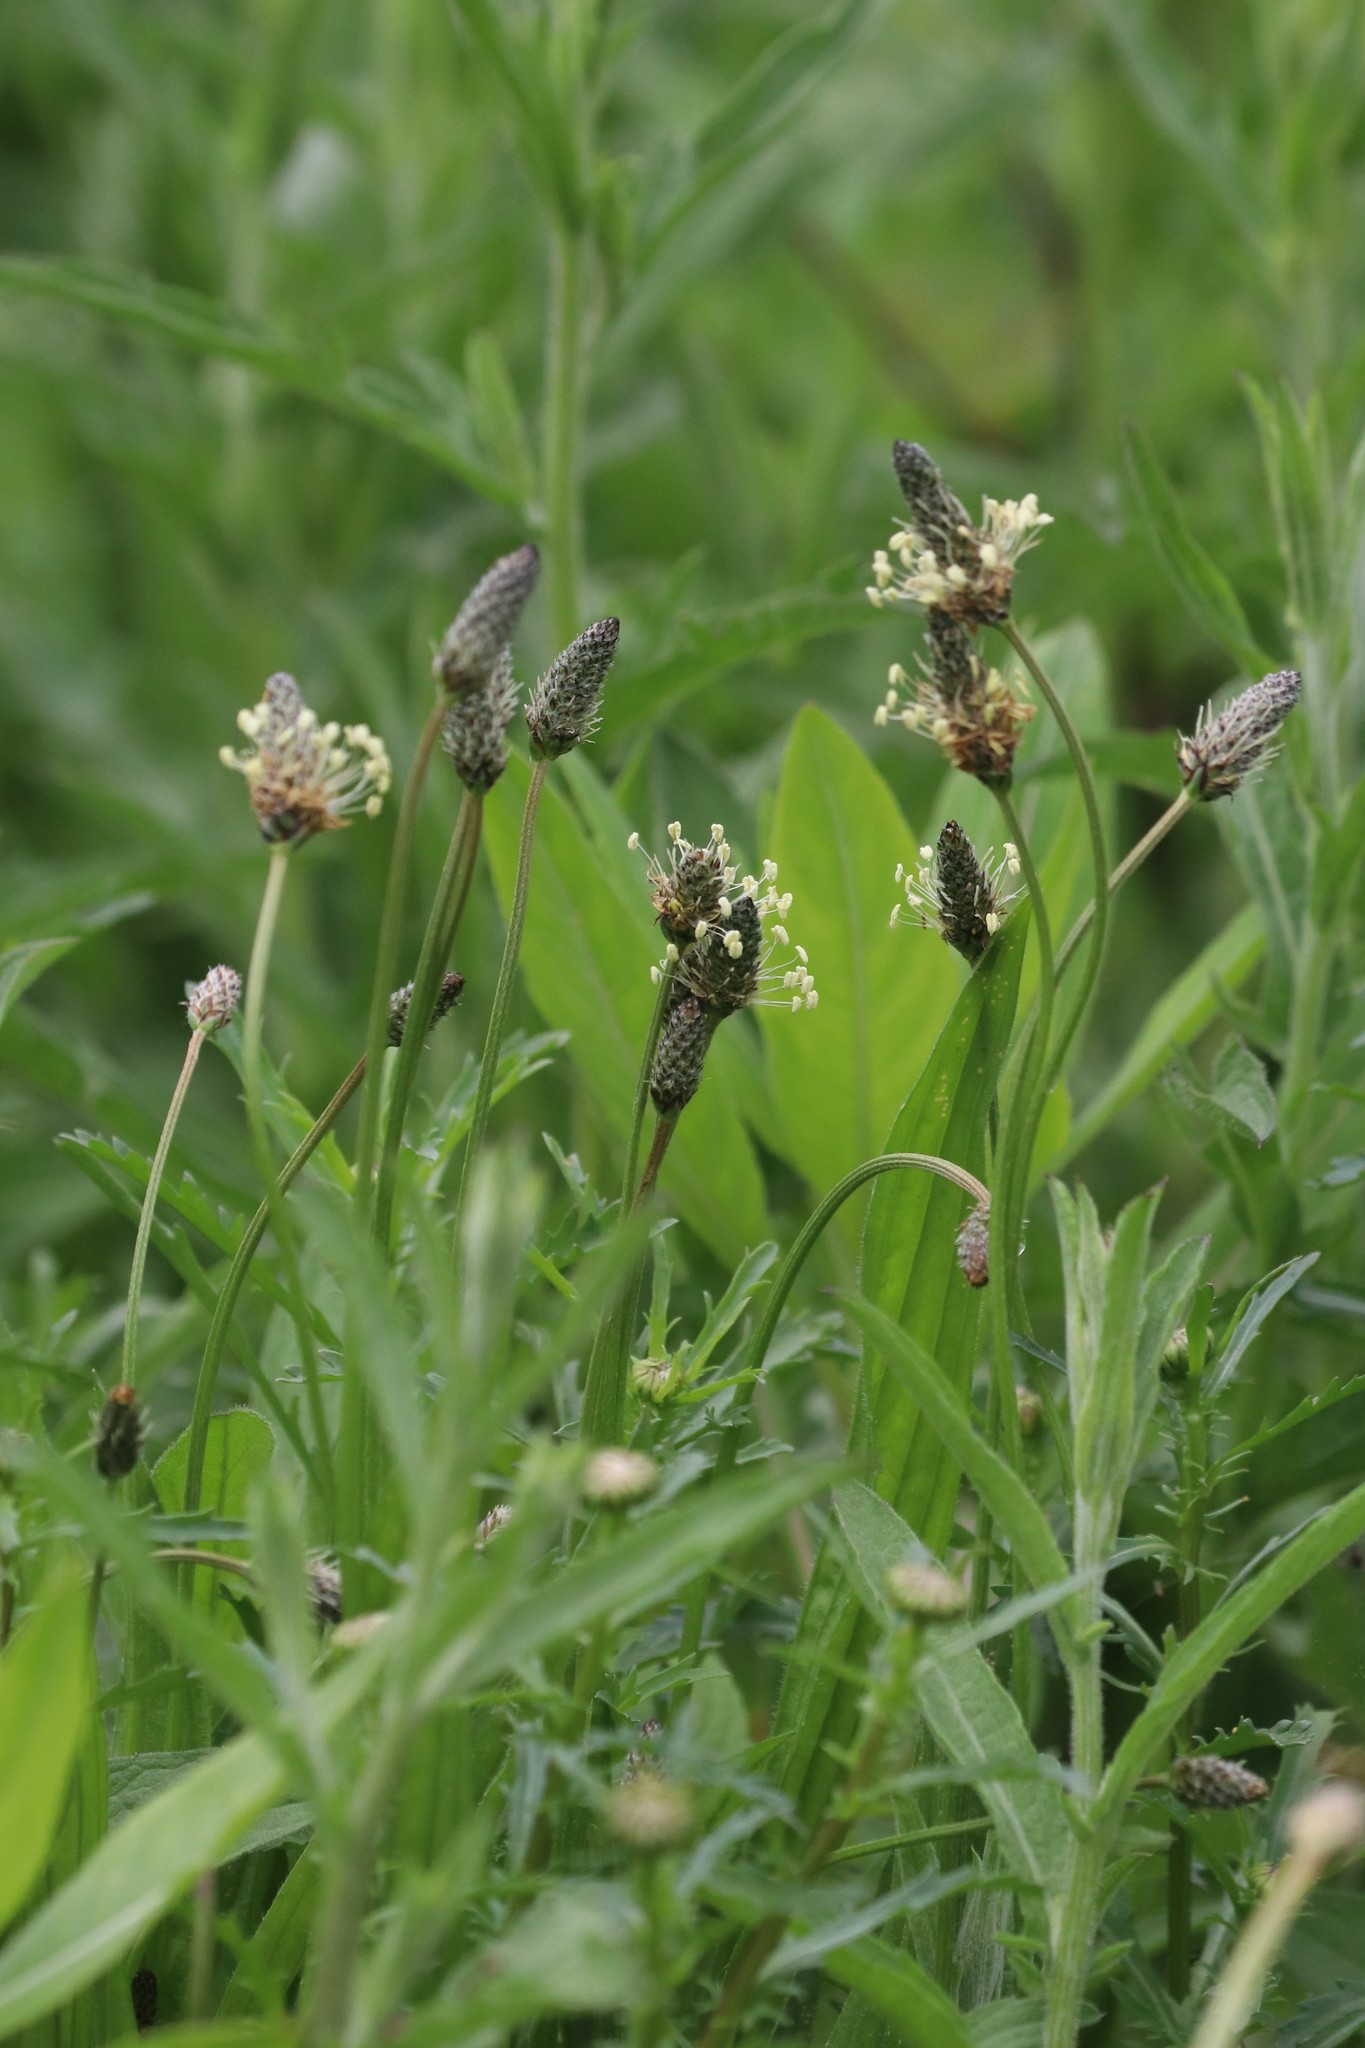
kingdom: Plantae
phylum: Tracheophyta
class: Magnoliopsida
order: Lamiales
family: Plantaginaceae
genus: Plantago
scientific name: Plantago lanceolata
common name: Ribwort plantain
